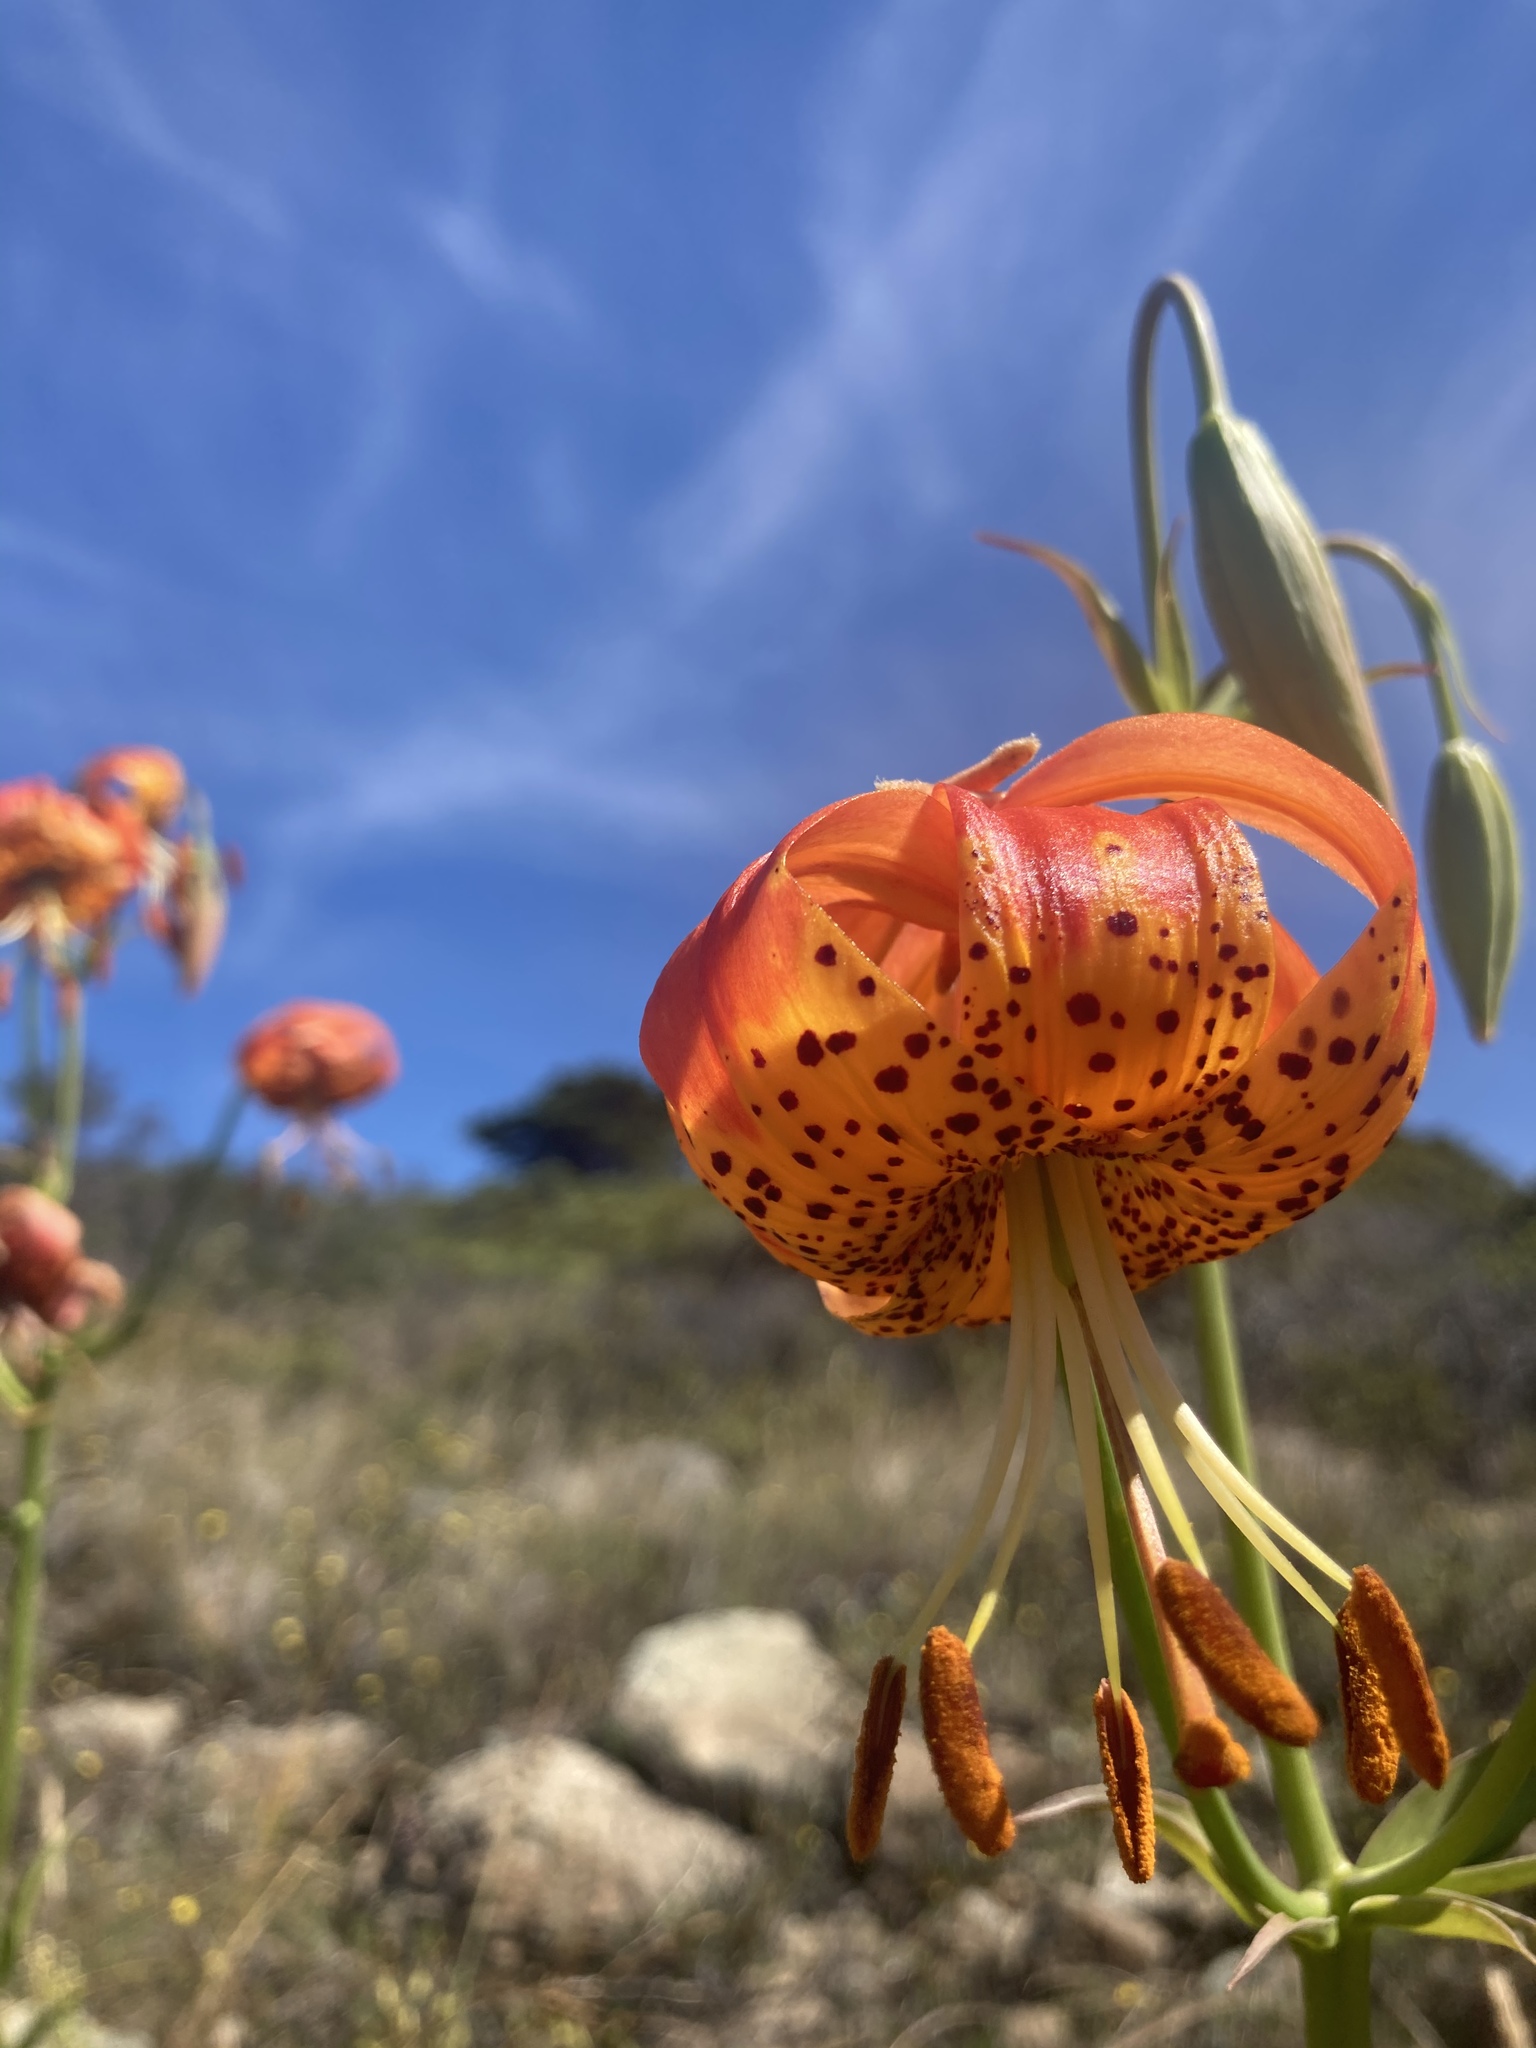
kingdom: Plantae
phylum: Tracheophyta
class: Liliopsida
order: Liliales
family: Liliaceae
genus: Lilium
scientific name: Lilium pardalinum
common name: Panther lily
